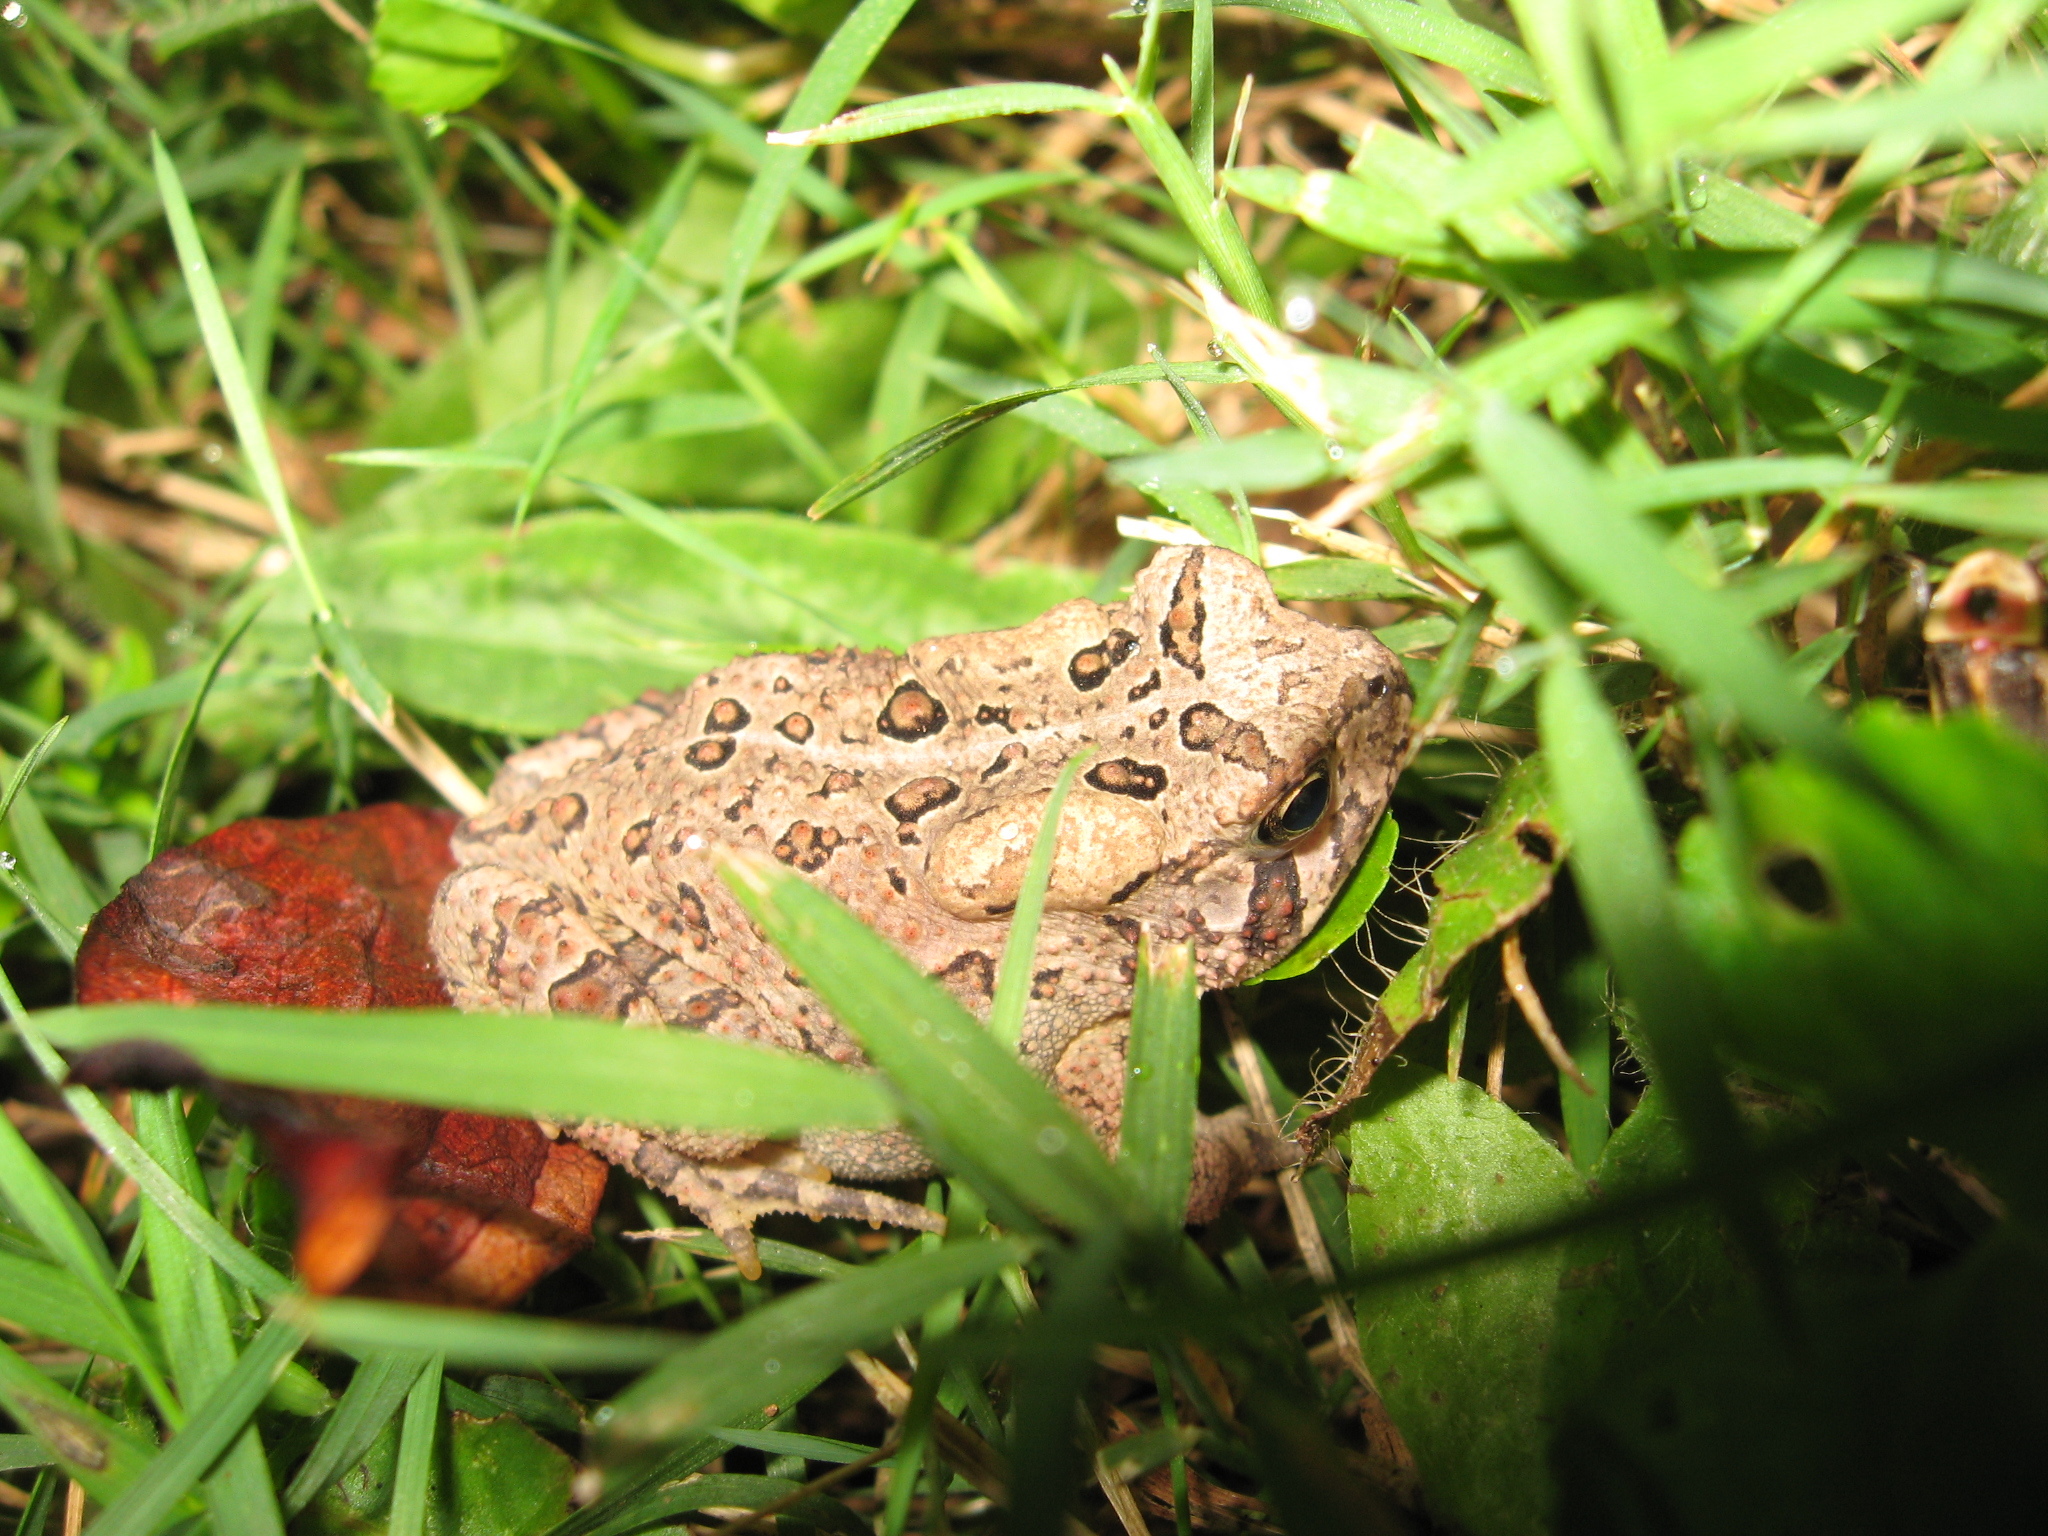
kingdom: Animalia
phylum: Chordata
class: Amphibia
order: Anura
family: Bufonidae
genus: Anaxyrus
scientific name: Anaxyrus americanus
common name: American toad
